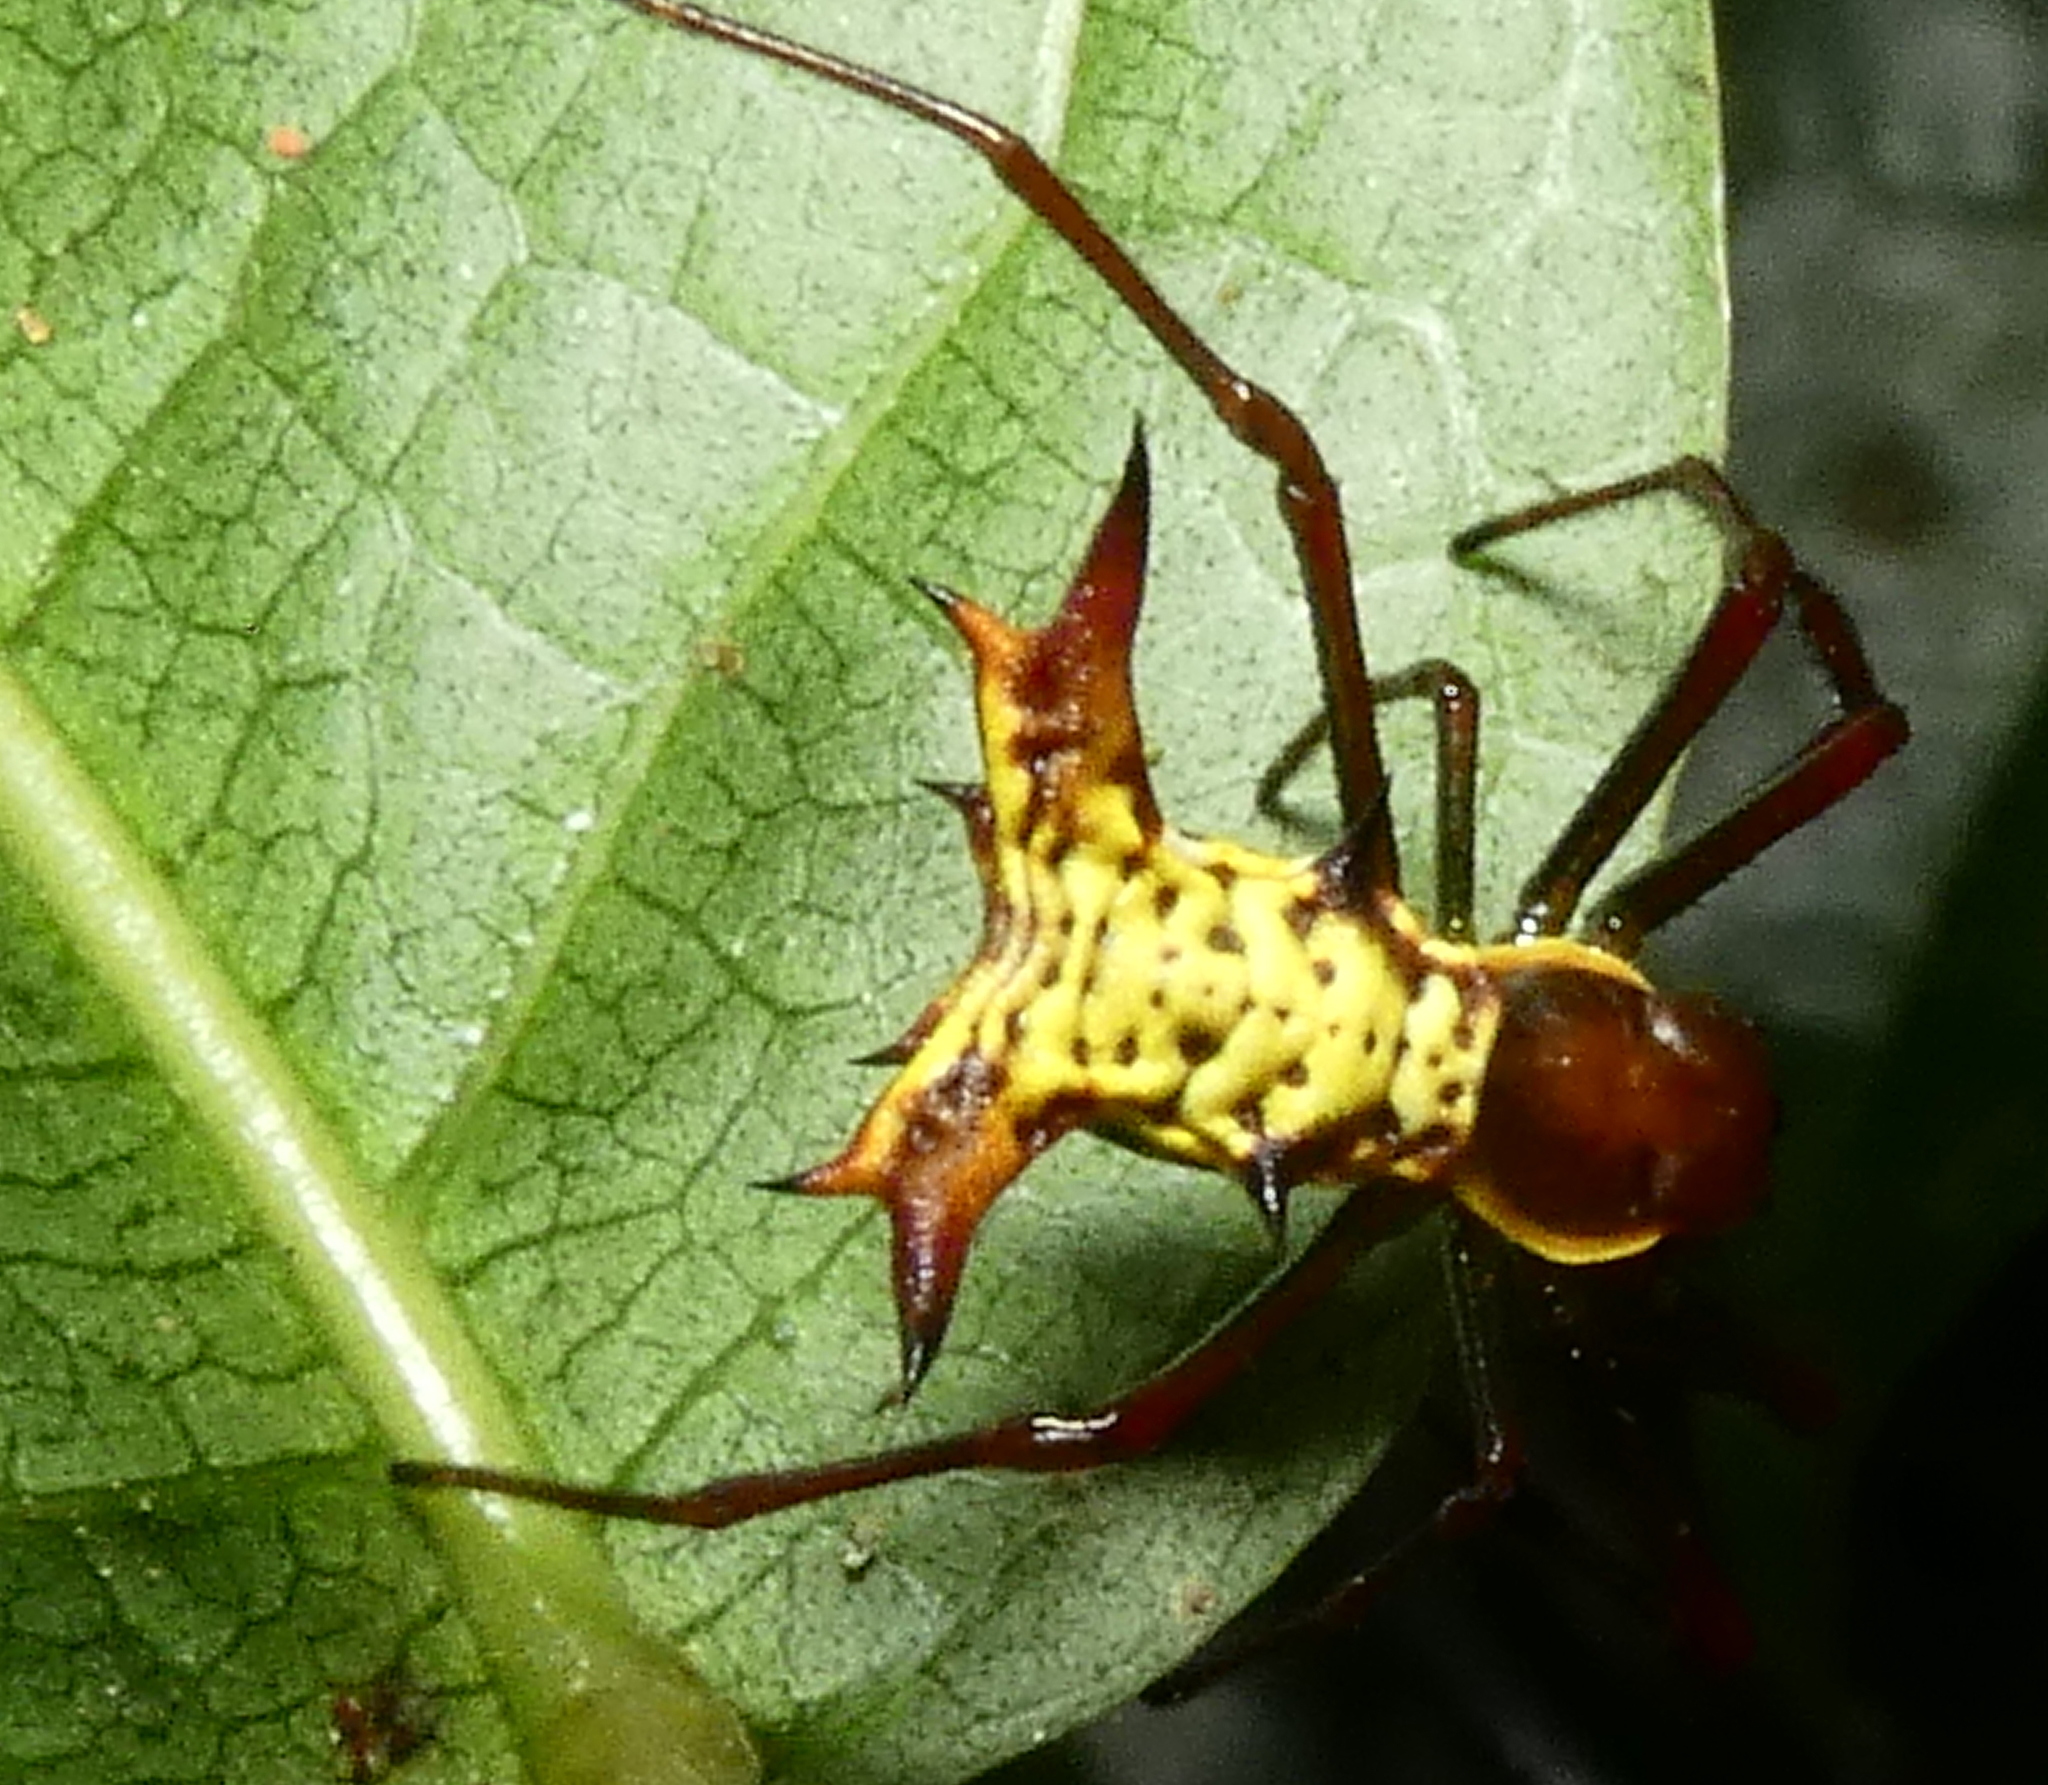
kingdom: Animalia
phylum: Arthropoda
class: Arachnida
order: Araneae
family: Araneidae
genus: Micrathena
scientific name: Micrathena fissispina
